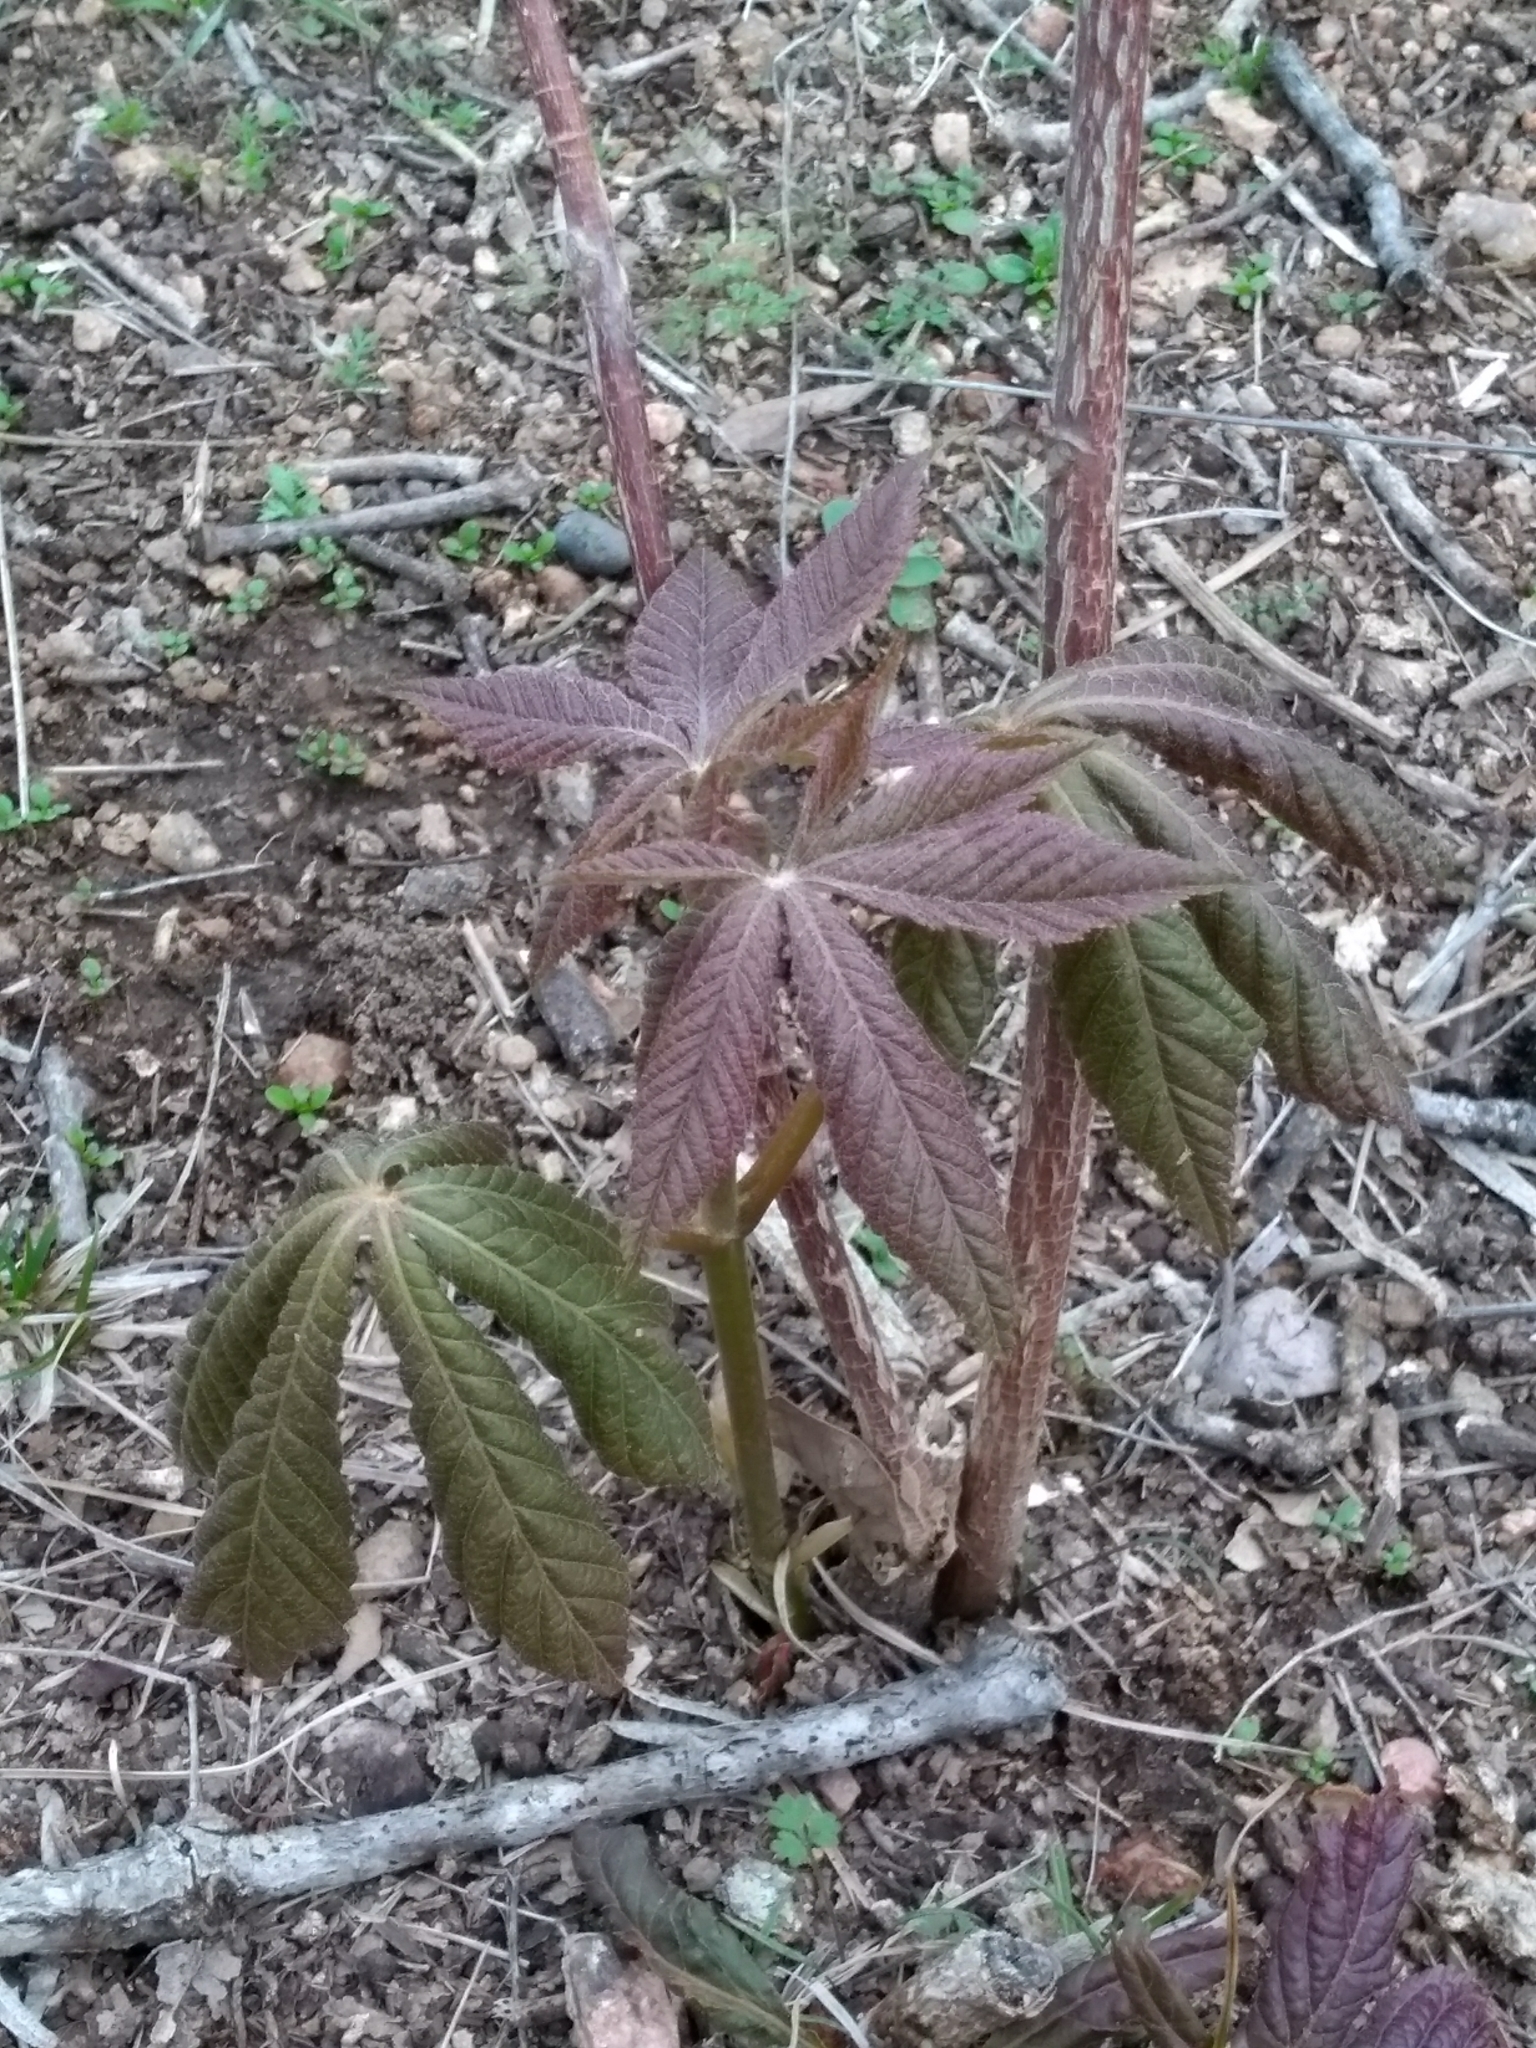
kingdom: Plantae
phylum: Tracheophyta
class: Magnoliopsida
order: Sapindales
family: Sapindaceae
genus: Aesculus
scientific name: Aesculus glabra
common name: Ohio buckeye
